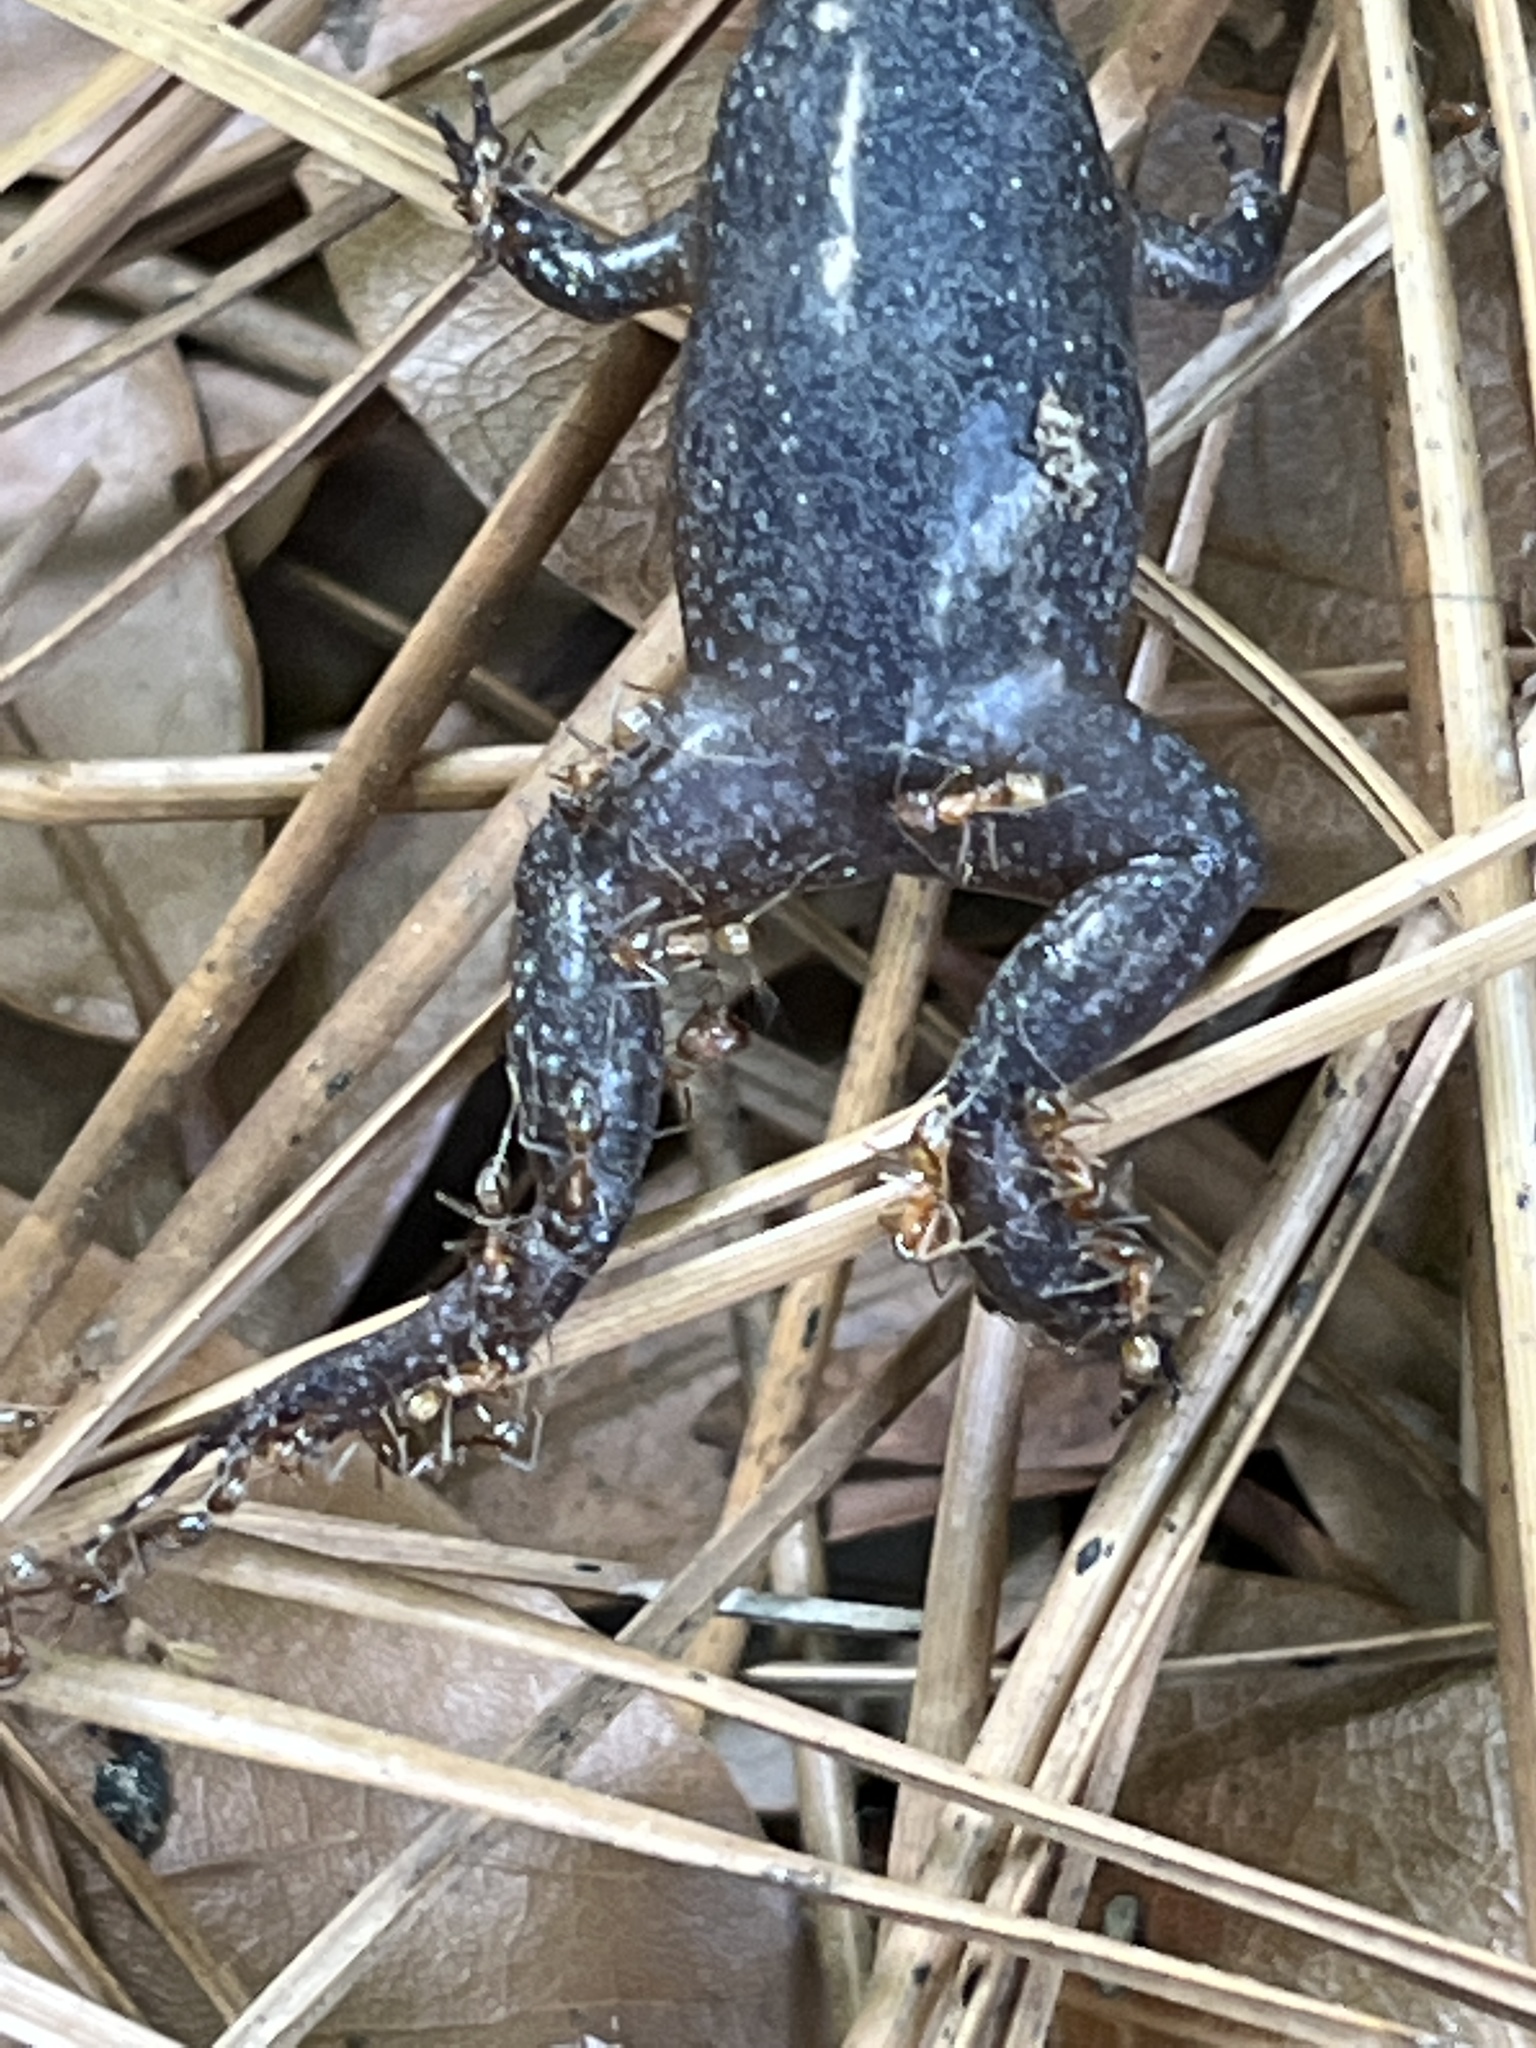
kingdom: Animalia
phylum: Arthropoda
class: Insecta
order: Hymenoptera
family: Formicidae
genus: Dorymyrmex
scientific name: Dorymyrmex bureni
